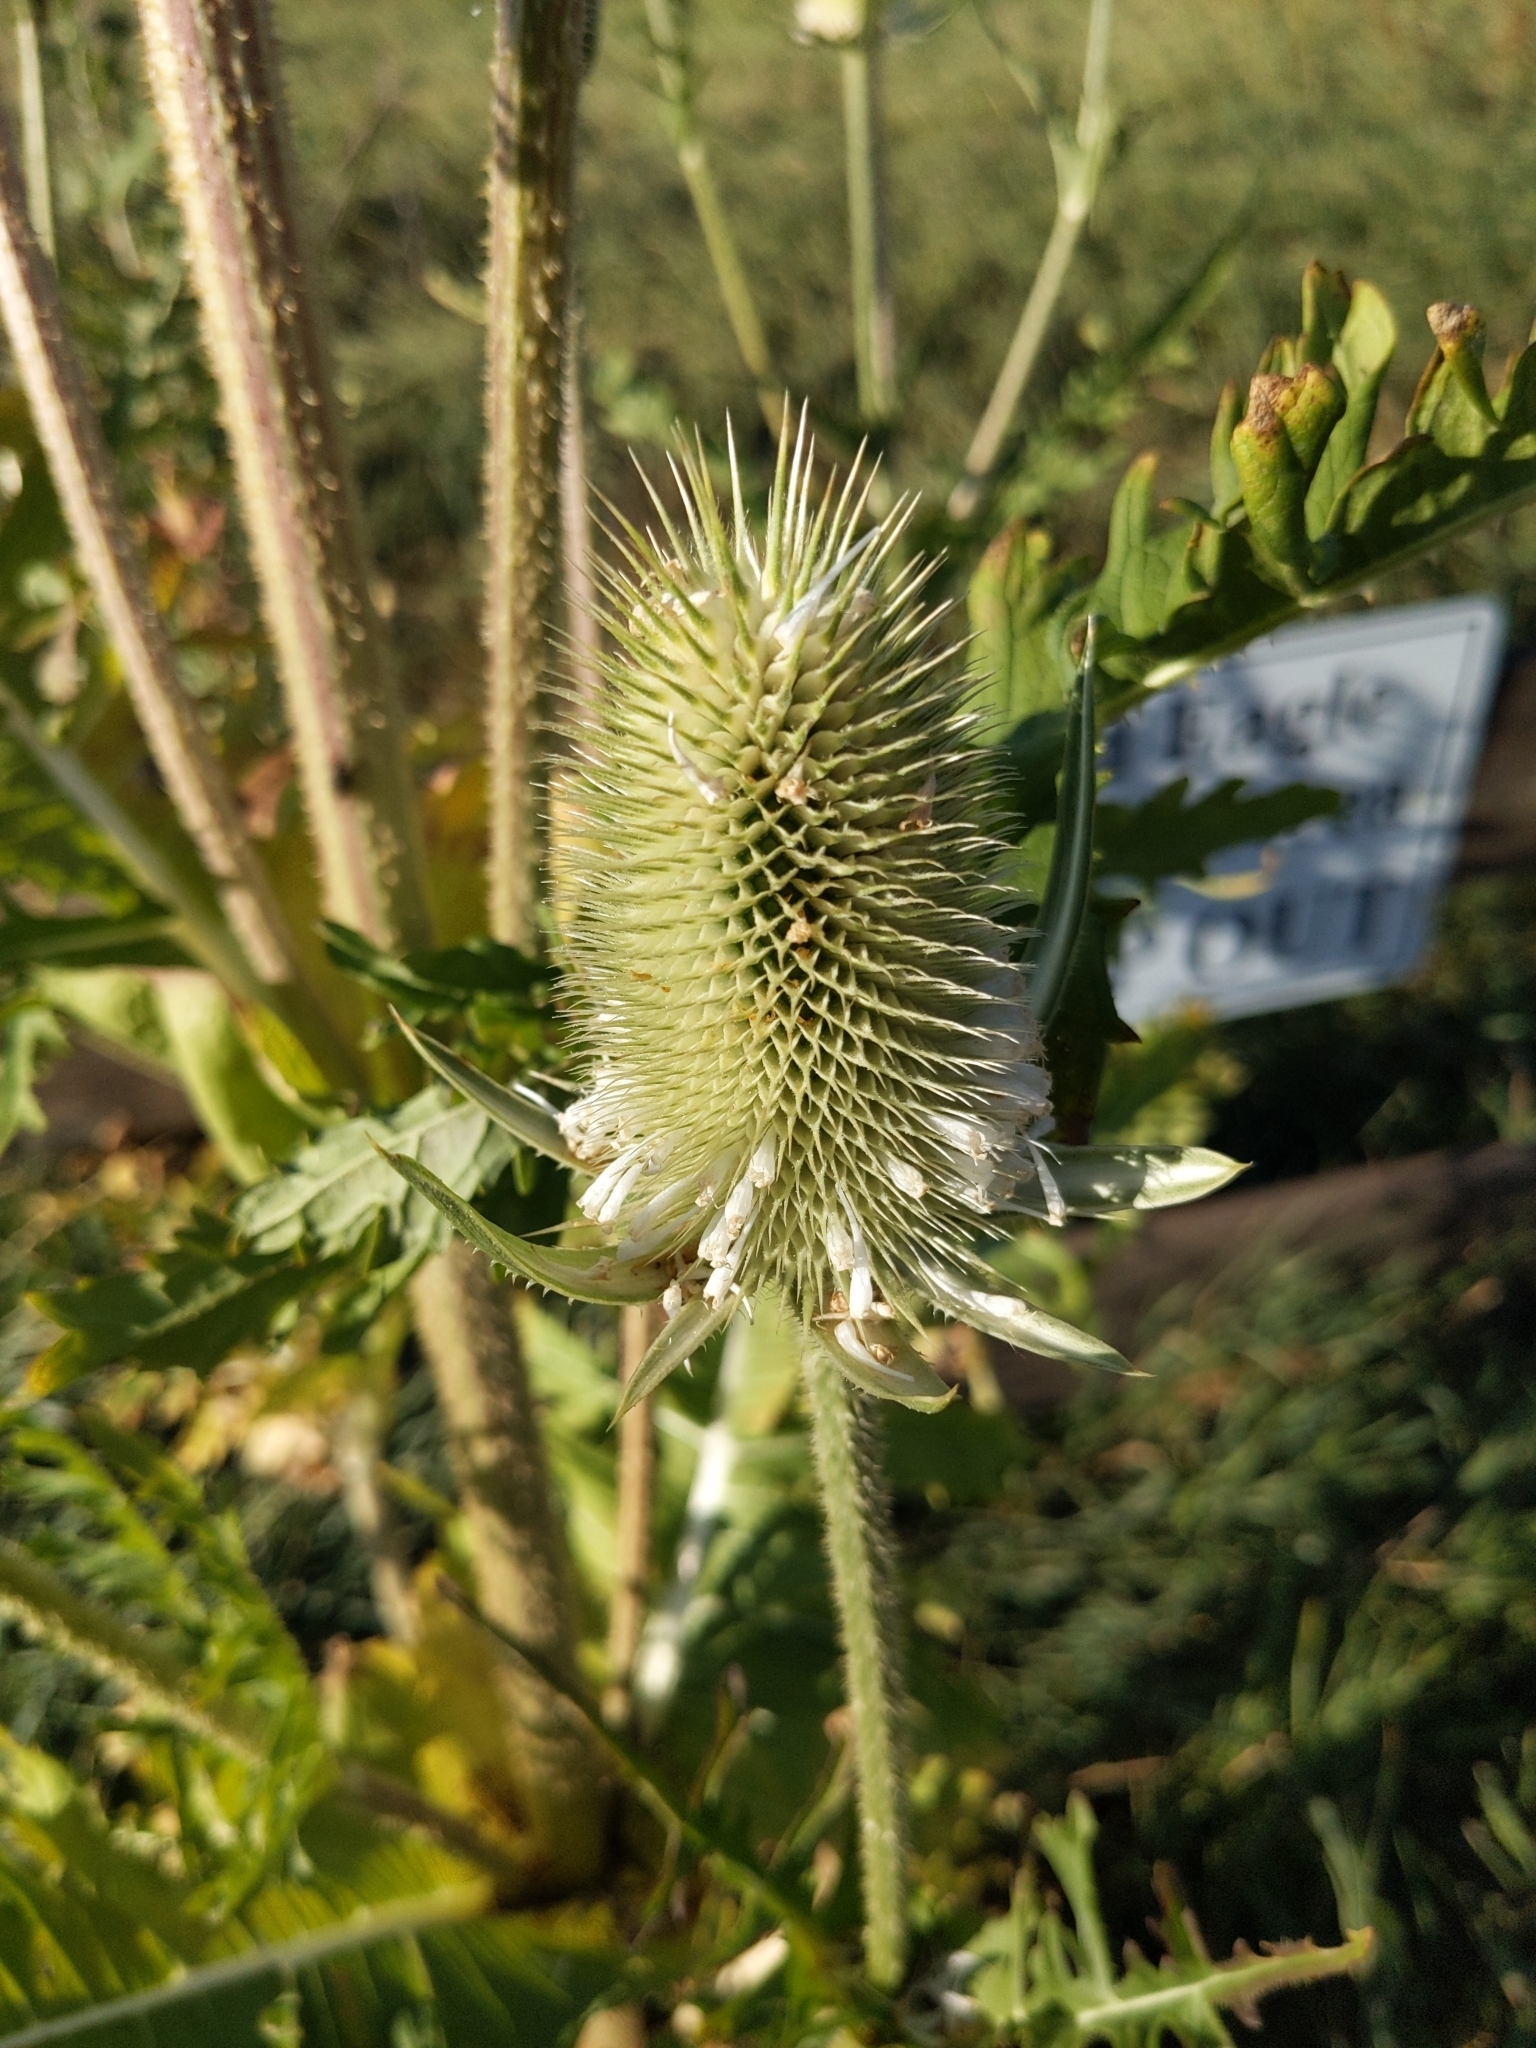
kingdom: Plantae
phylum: Tracheophyta
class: Magnoliopsida
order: Dipsacales
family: Caprifoliaceae
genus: Dipsacus
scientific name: Dipsacus laciniatus
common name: Cut-leaved teasel
